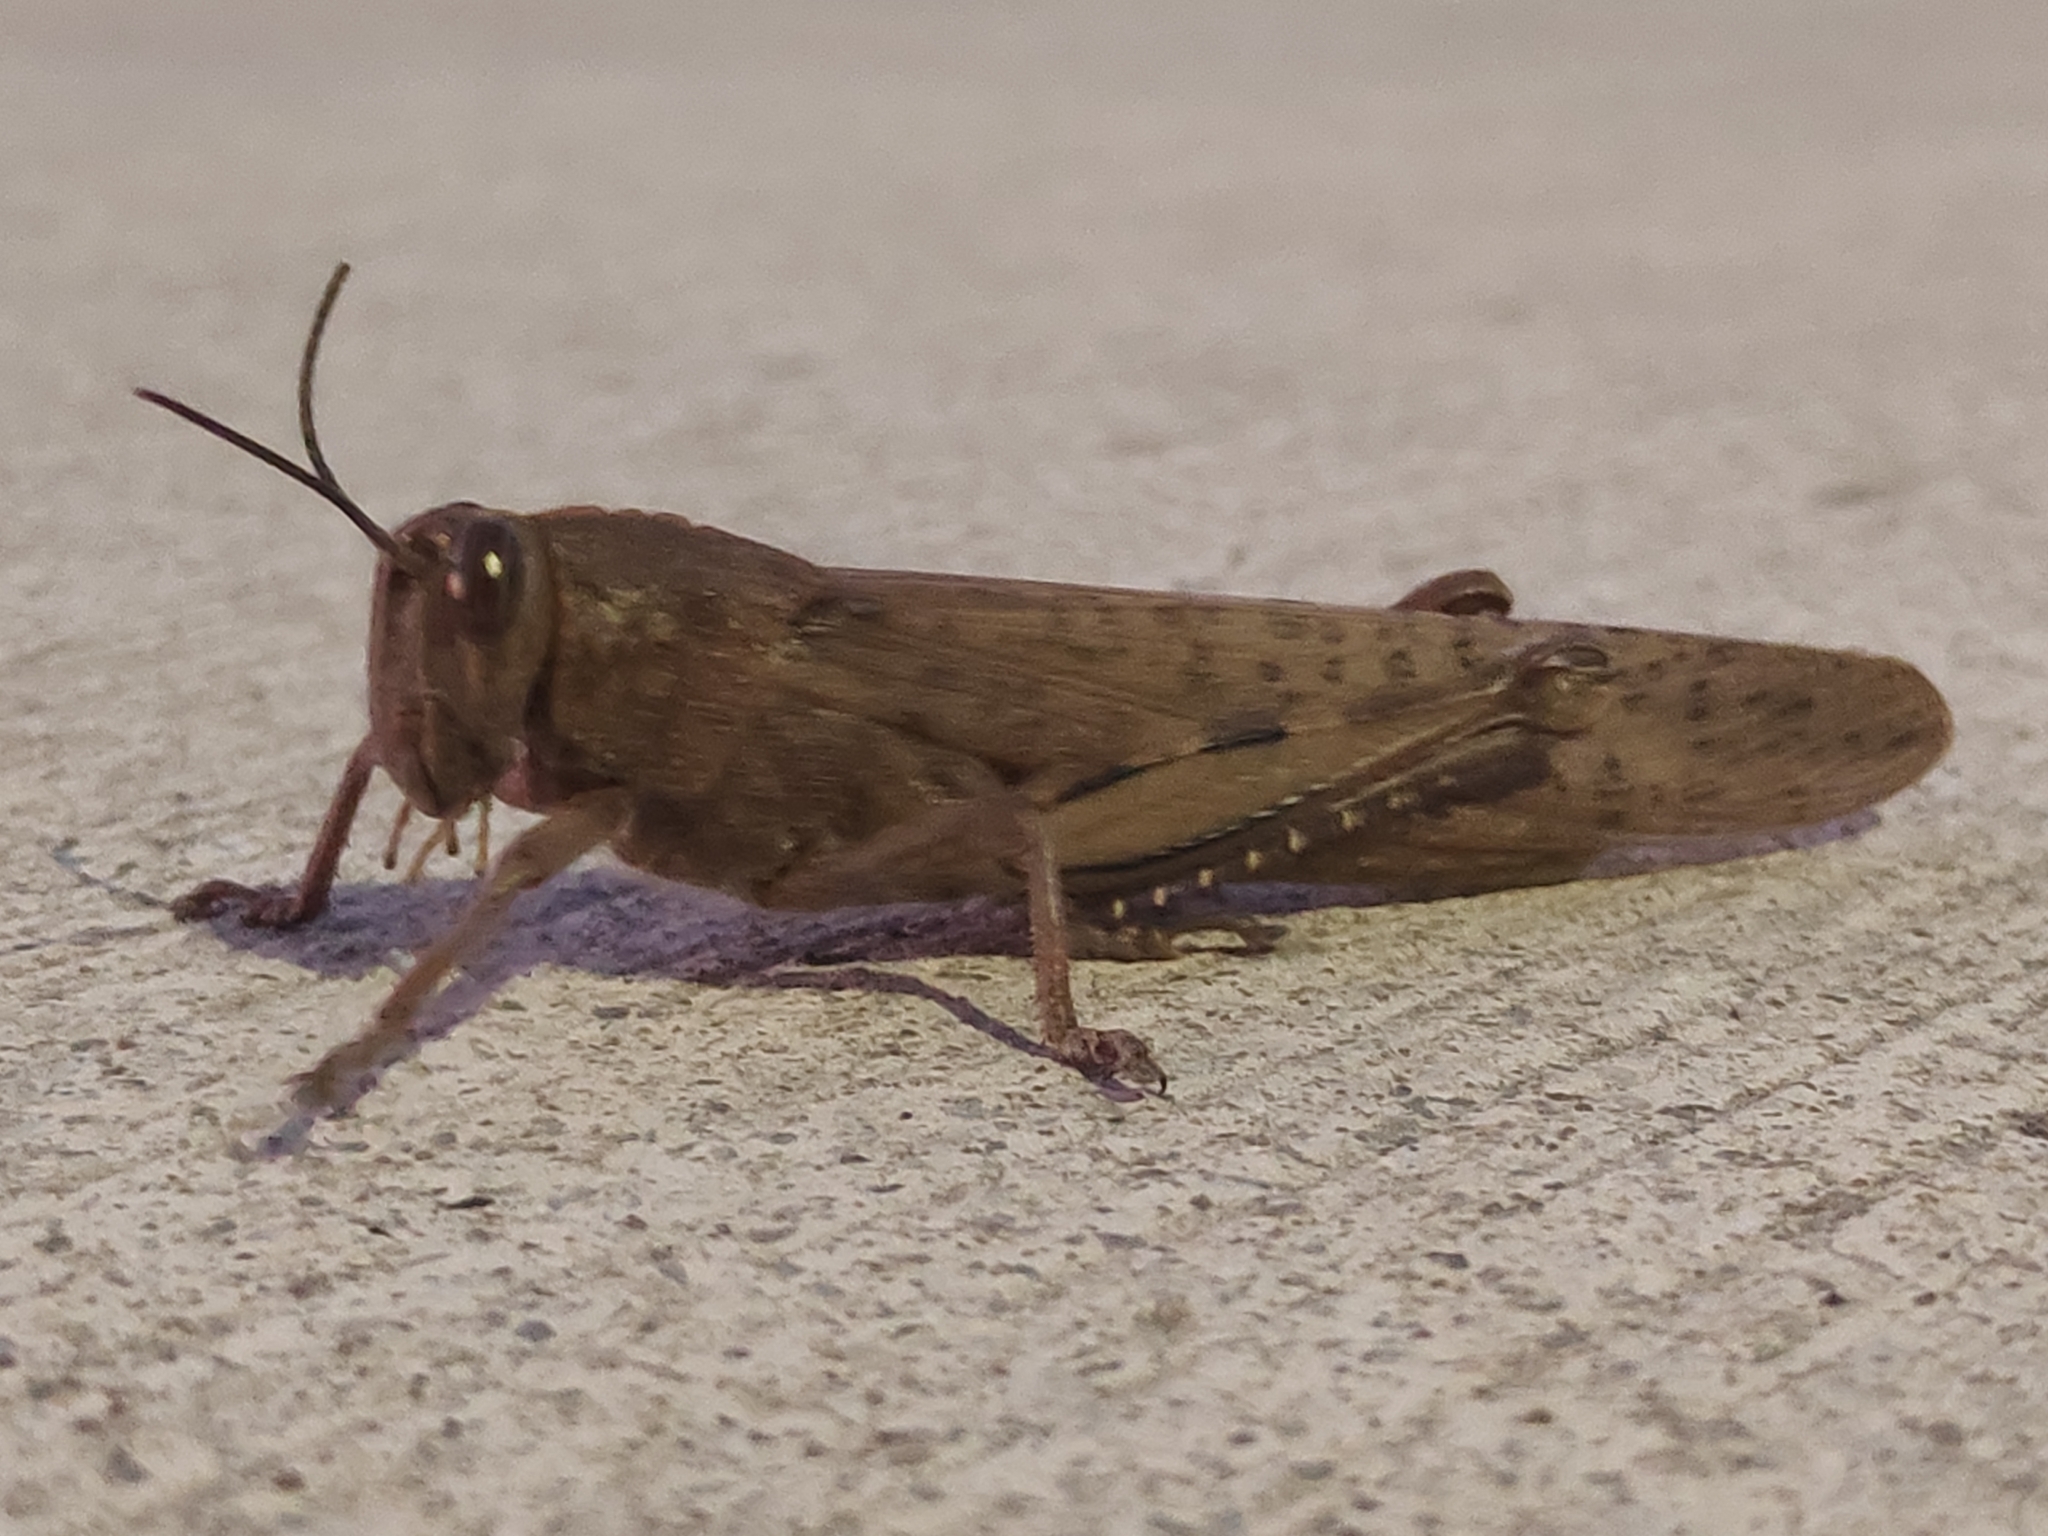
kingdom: Animalia
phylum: Arthropoda
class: Insecta
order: Orthoptera
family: Acrididae
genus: Anacridium
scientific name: Anacridium aegyptium
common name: Egyptian grasshopper
